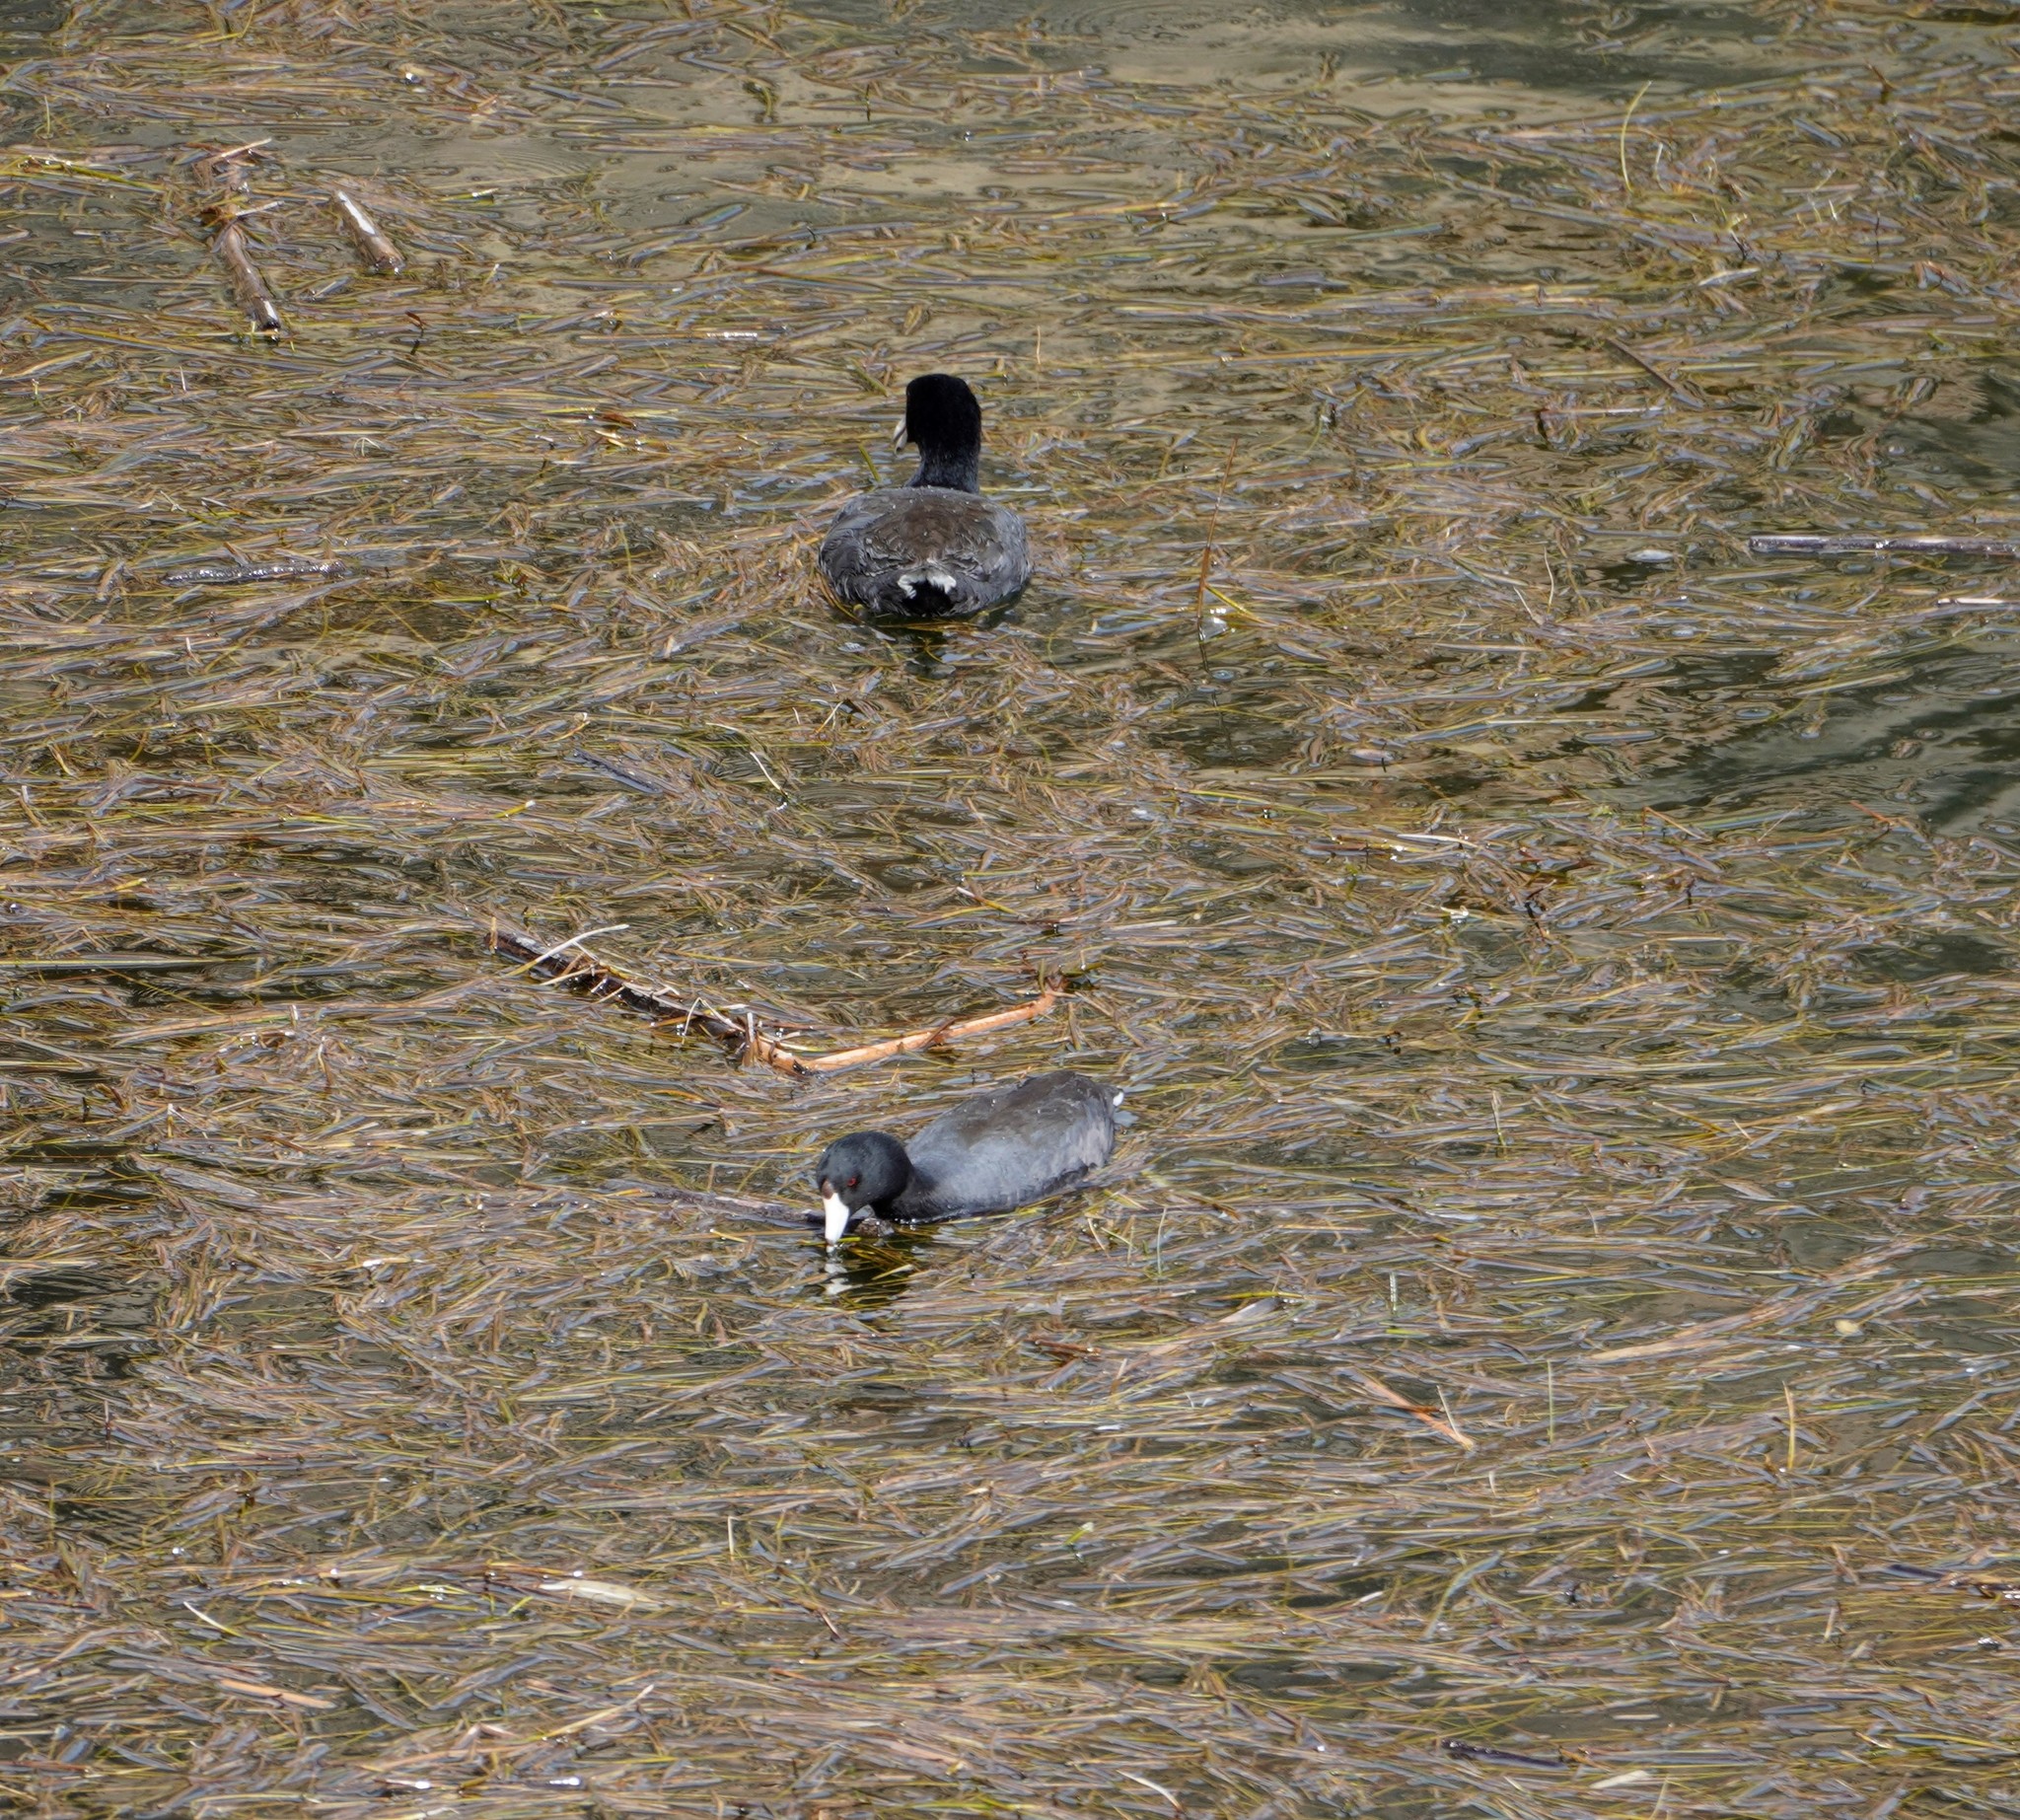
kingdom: Animalia
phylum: Chordata
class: Aves
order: Gruiformes
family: Rallidae
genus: Fulica
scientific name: Fulica americana
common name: American coot
